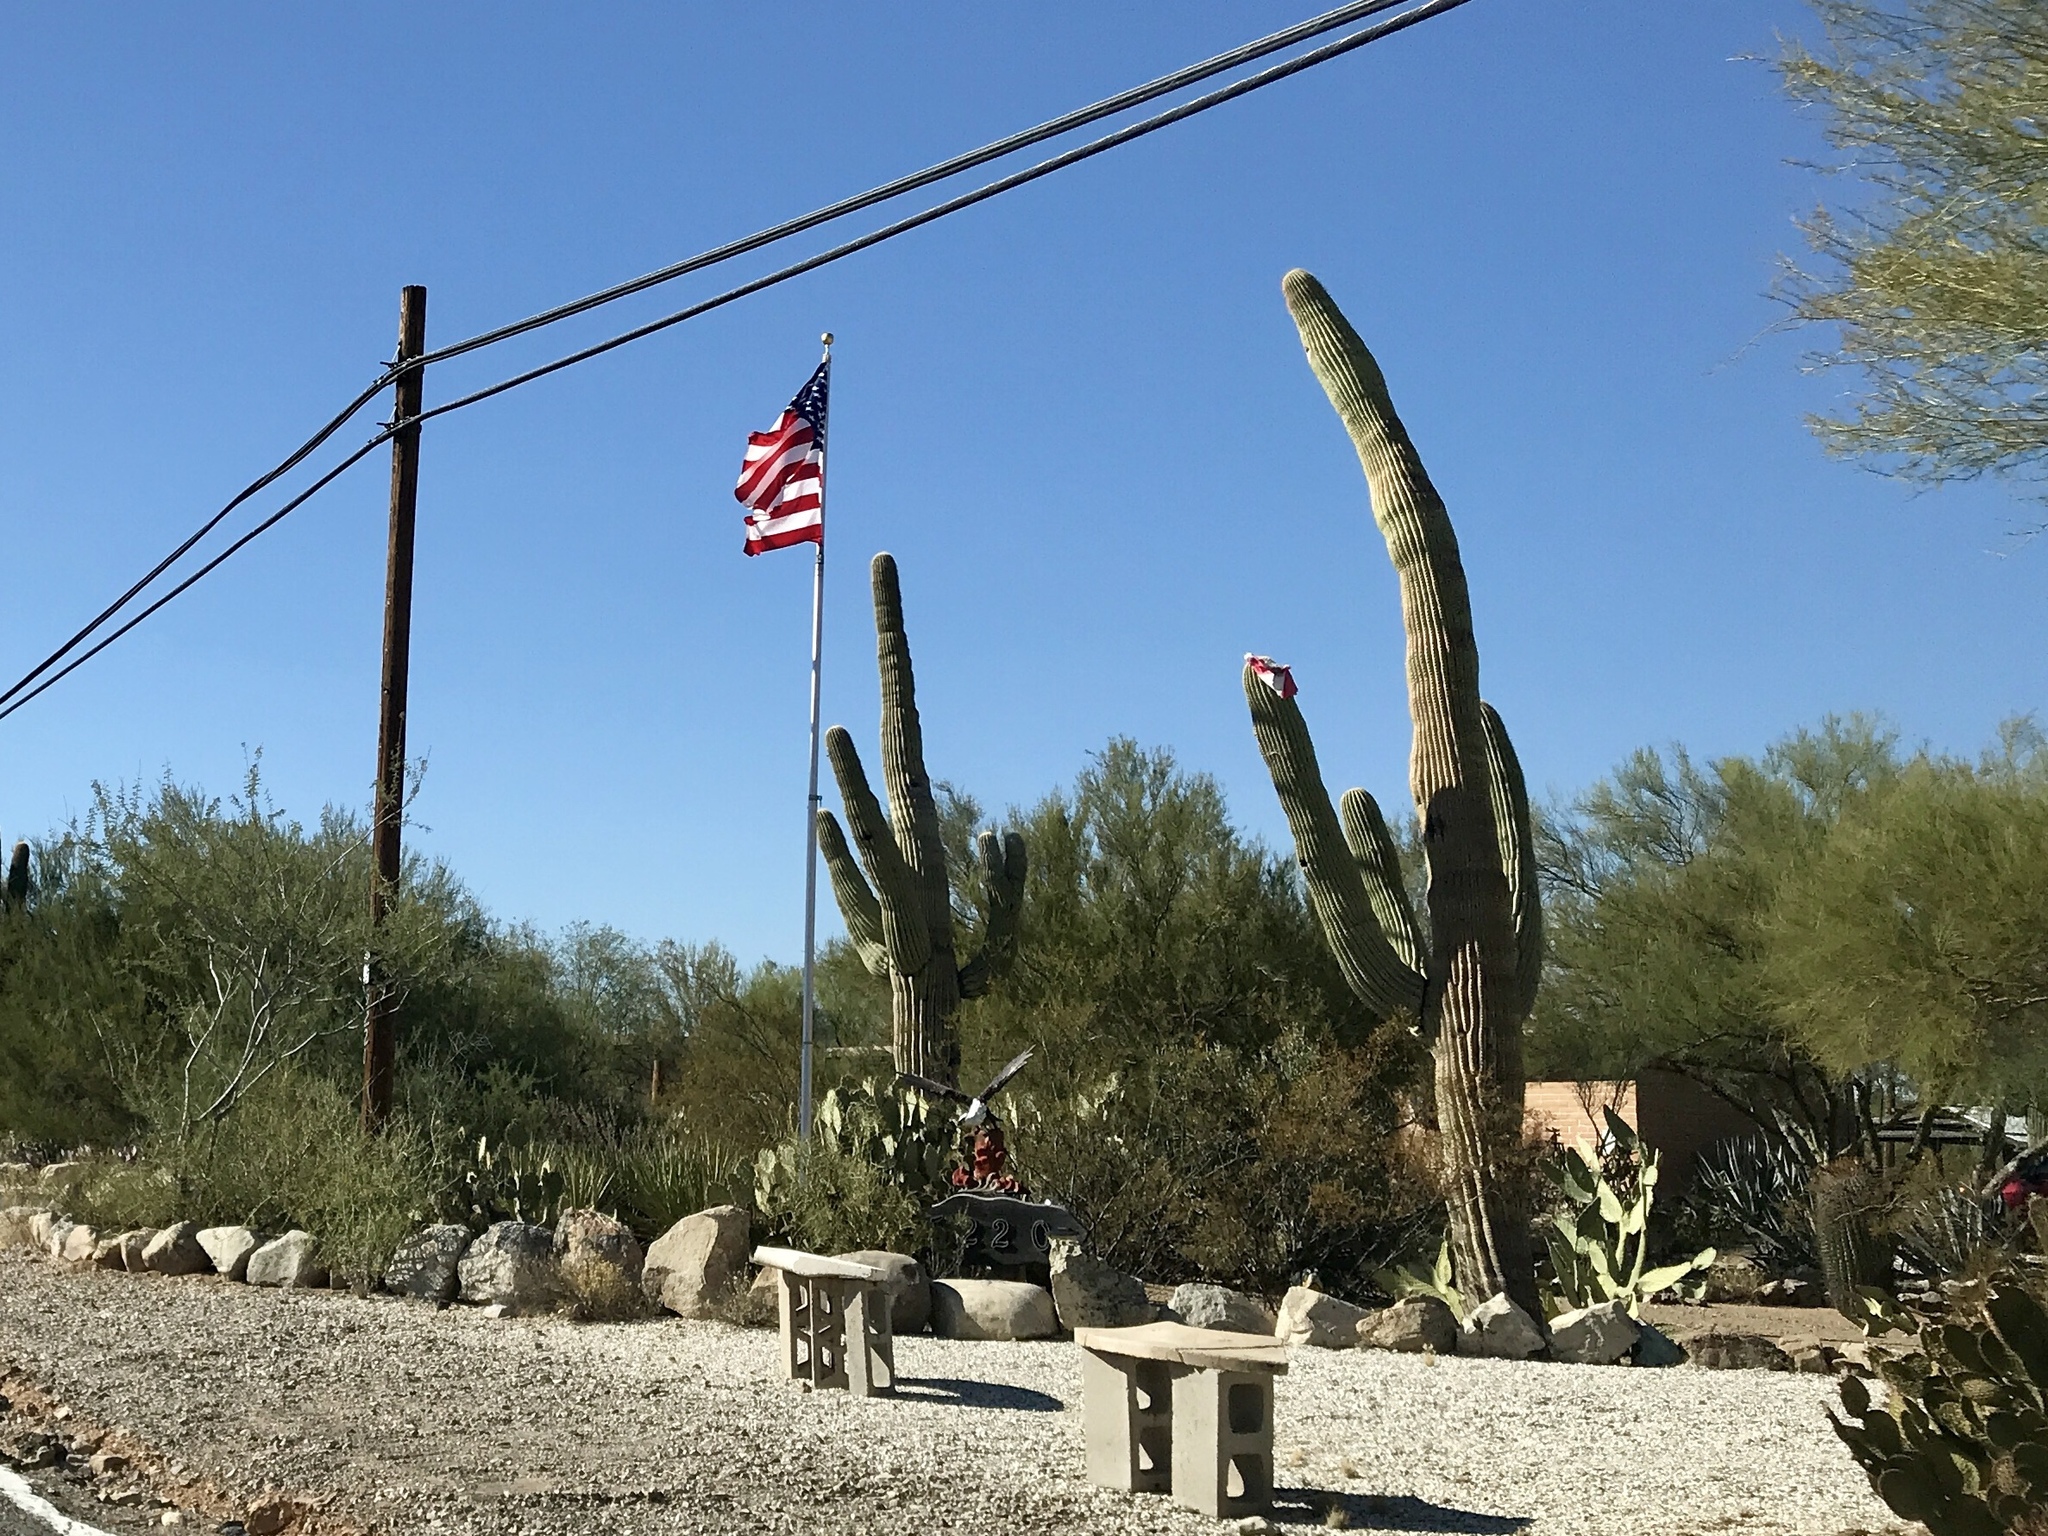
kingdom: Plantae
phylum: Tracheophyta
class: Magnoliopsida
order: Caryophyllales
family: Cactaceae
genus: Carnegiea
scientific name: Carnegiea gigantea
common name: Saguaro
